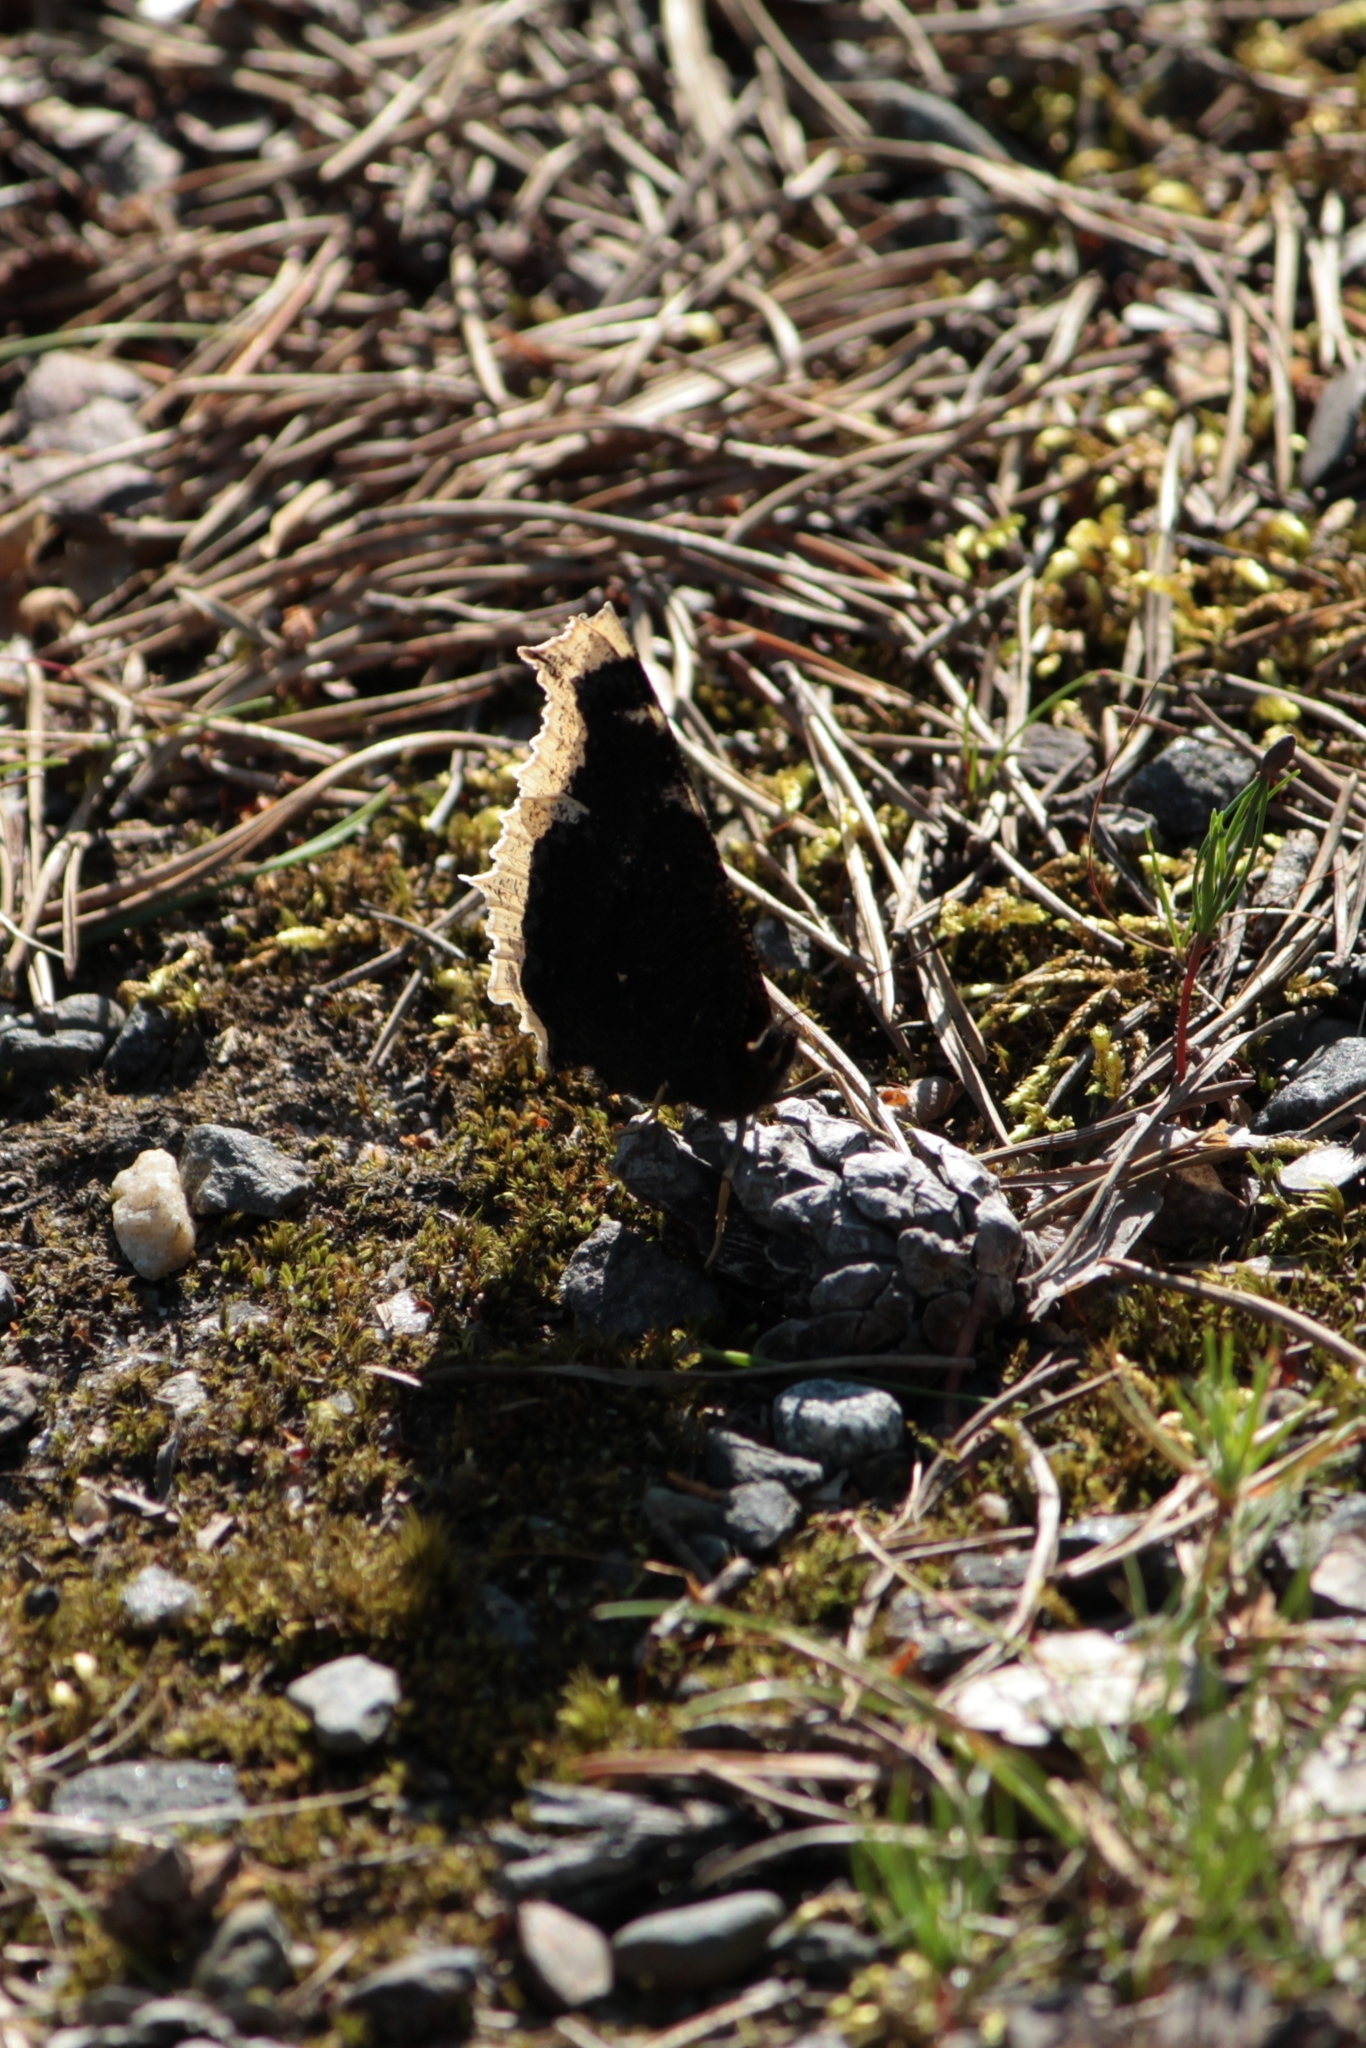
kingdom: Animalia
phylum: Arthropoda
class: Insecta
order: Lepidoptera
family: Nymphalidae
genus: Nymphalis
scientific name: Nymphalis antiopa
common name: Camberwell beauty
